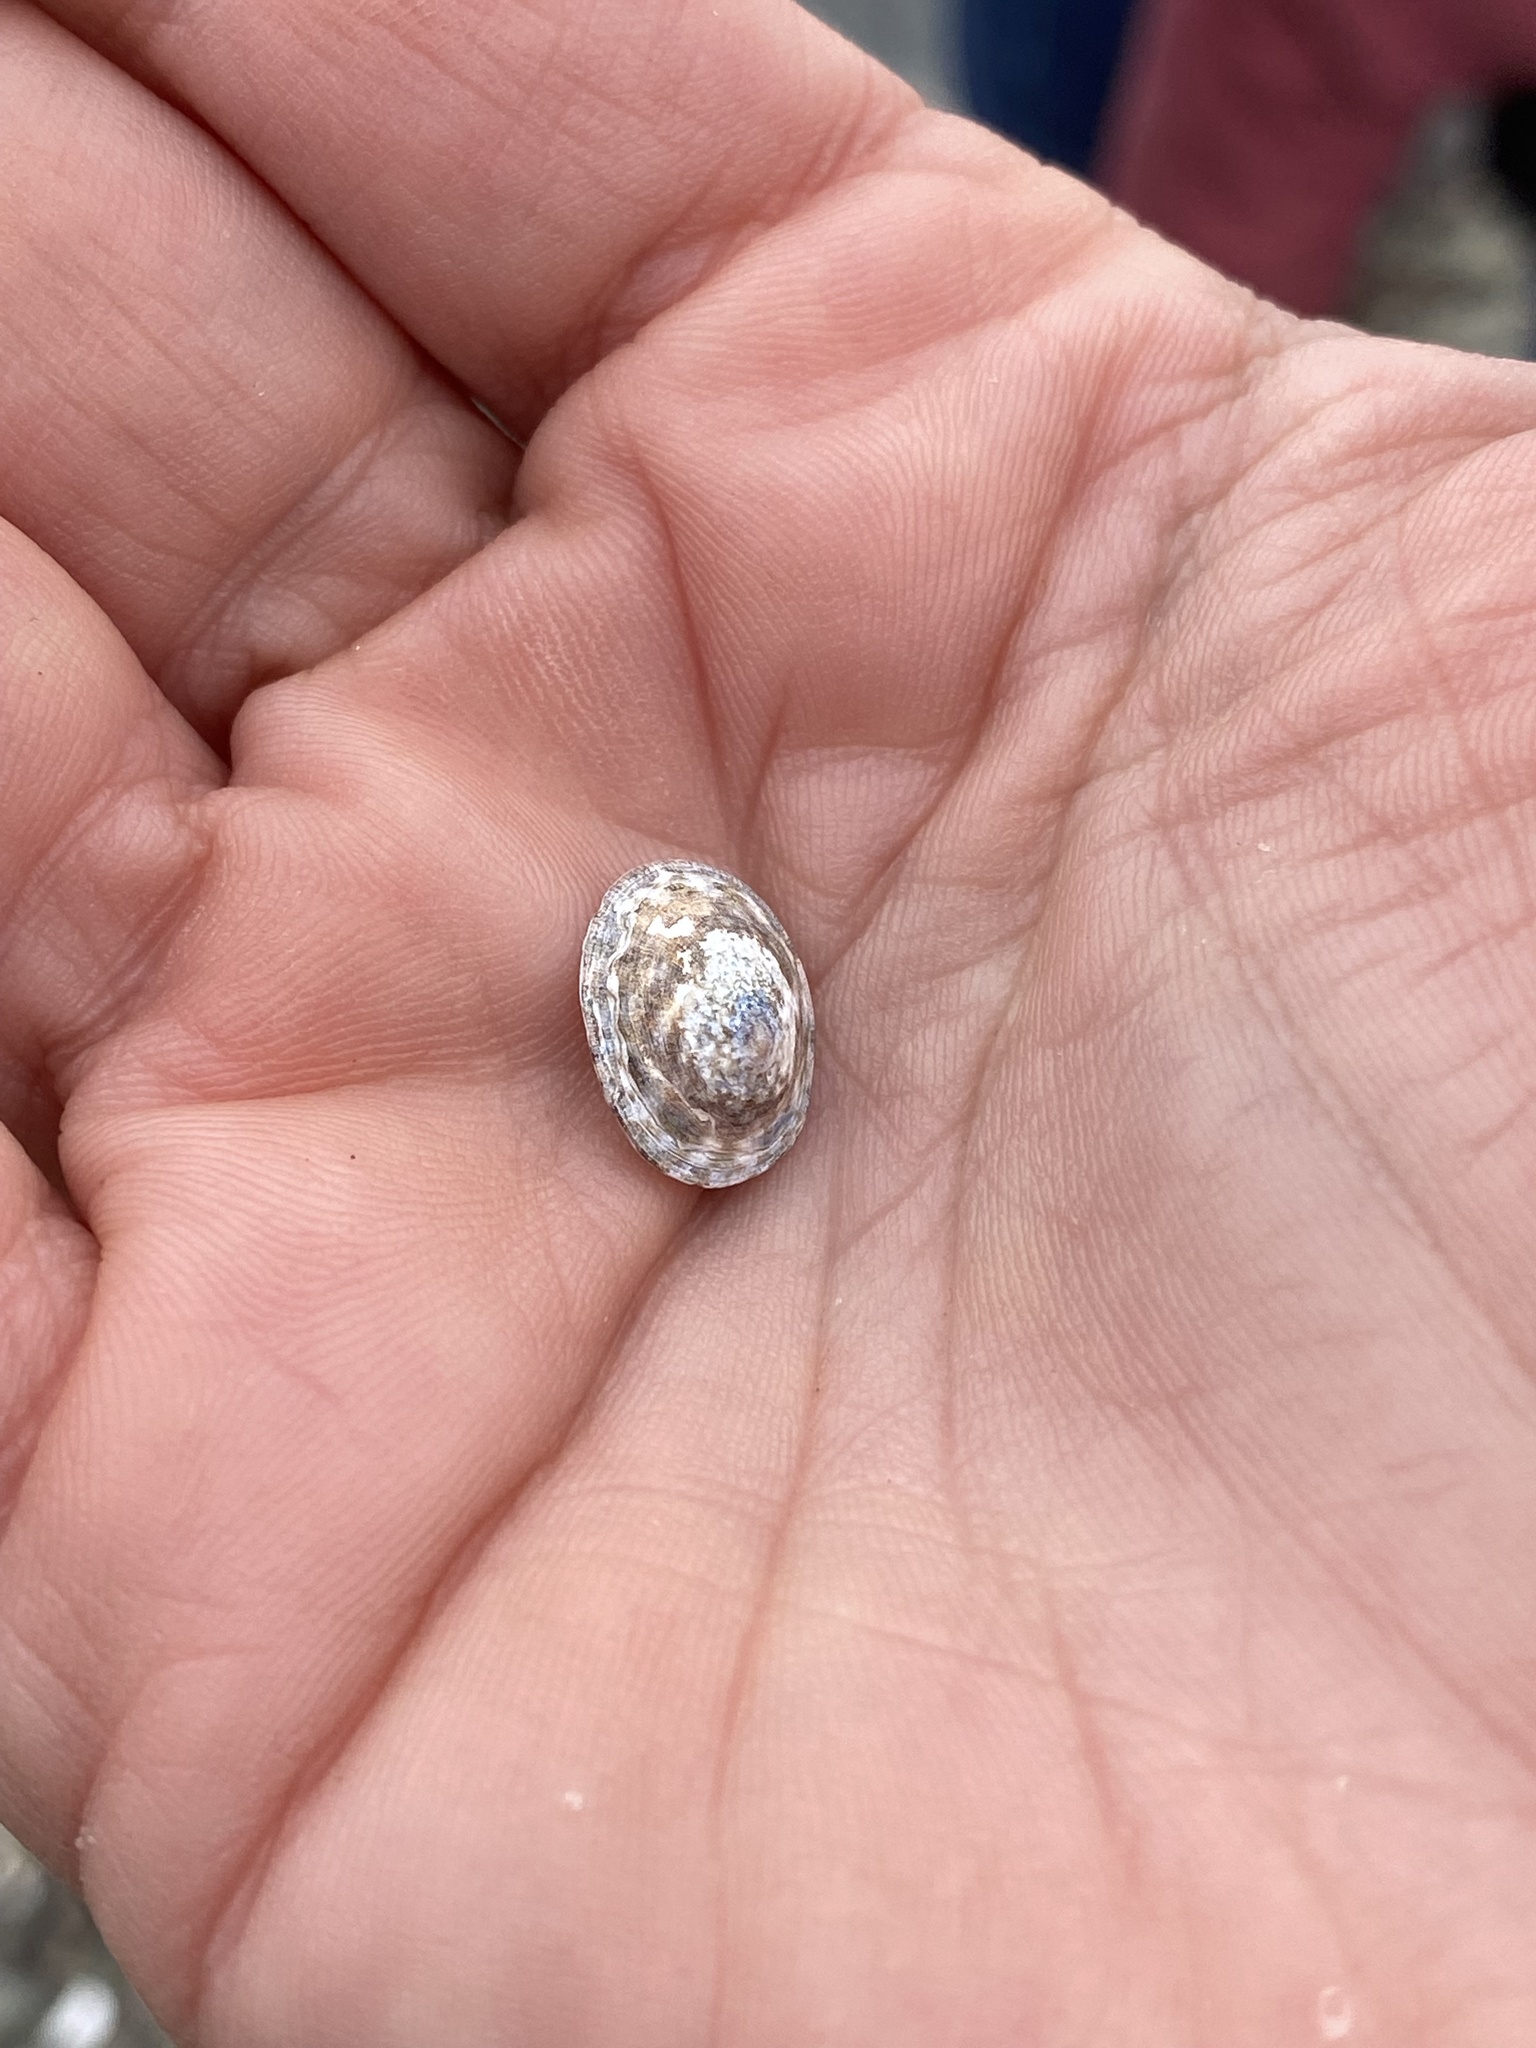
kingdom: Animalia
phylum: Mollusca
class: Gastropoda
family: Lottiidae
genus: Testudinalia
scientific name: Testudinalia testudinalis
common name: Common tortoiseshell limpet
